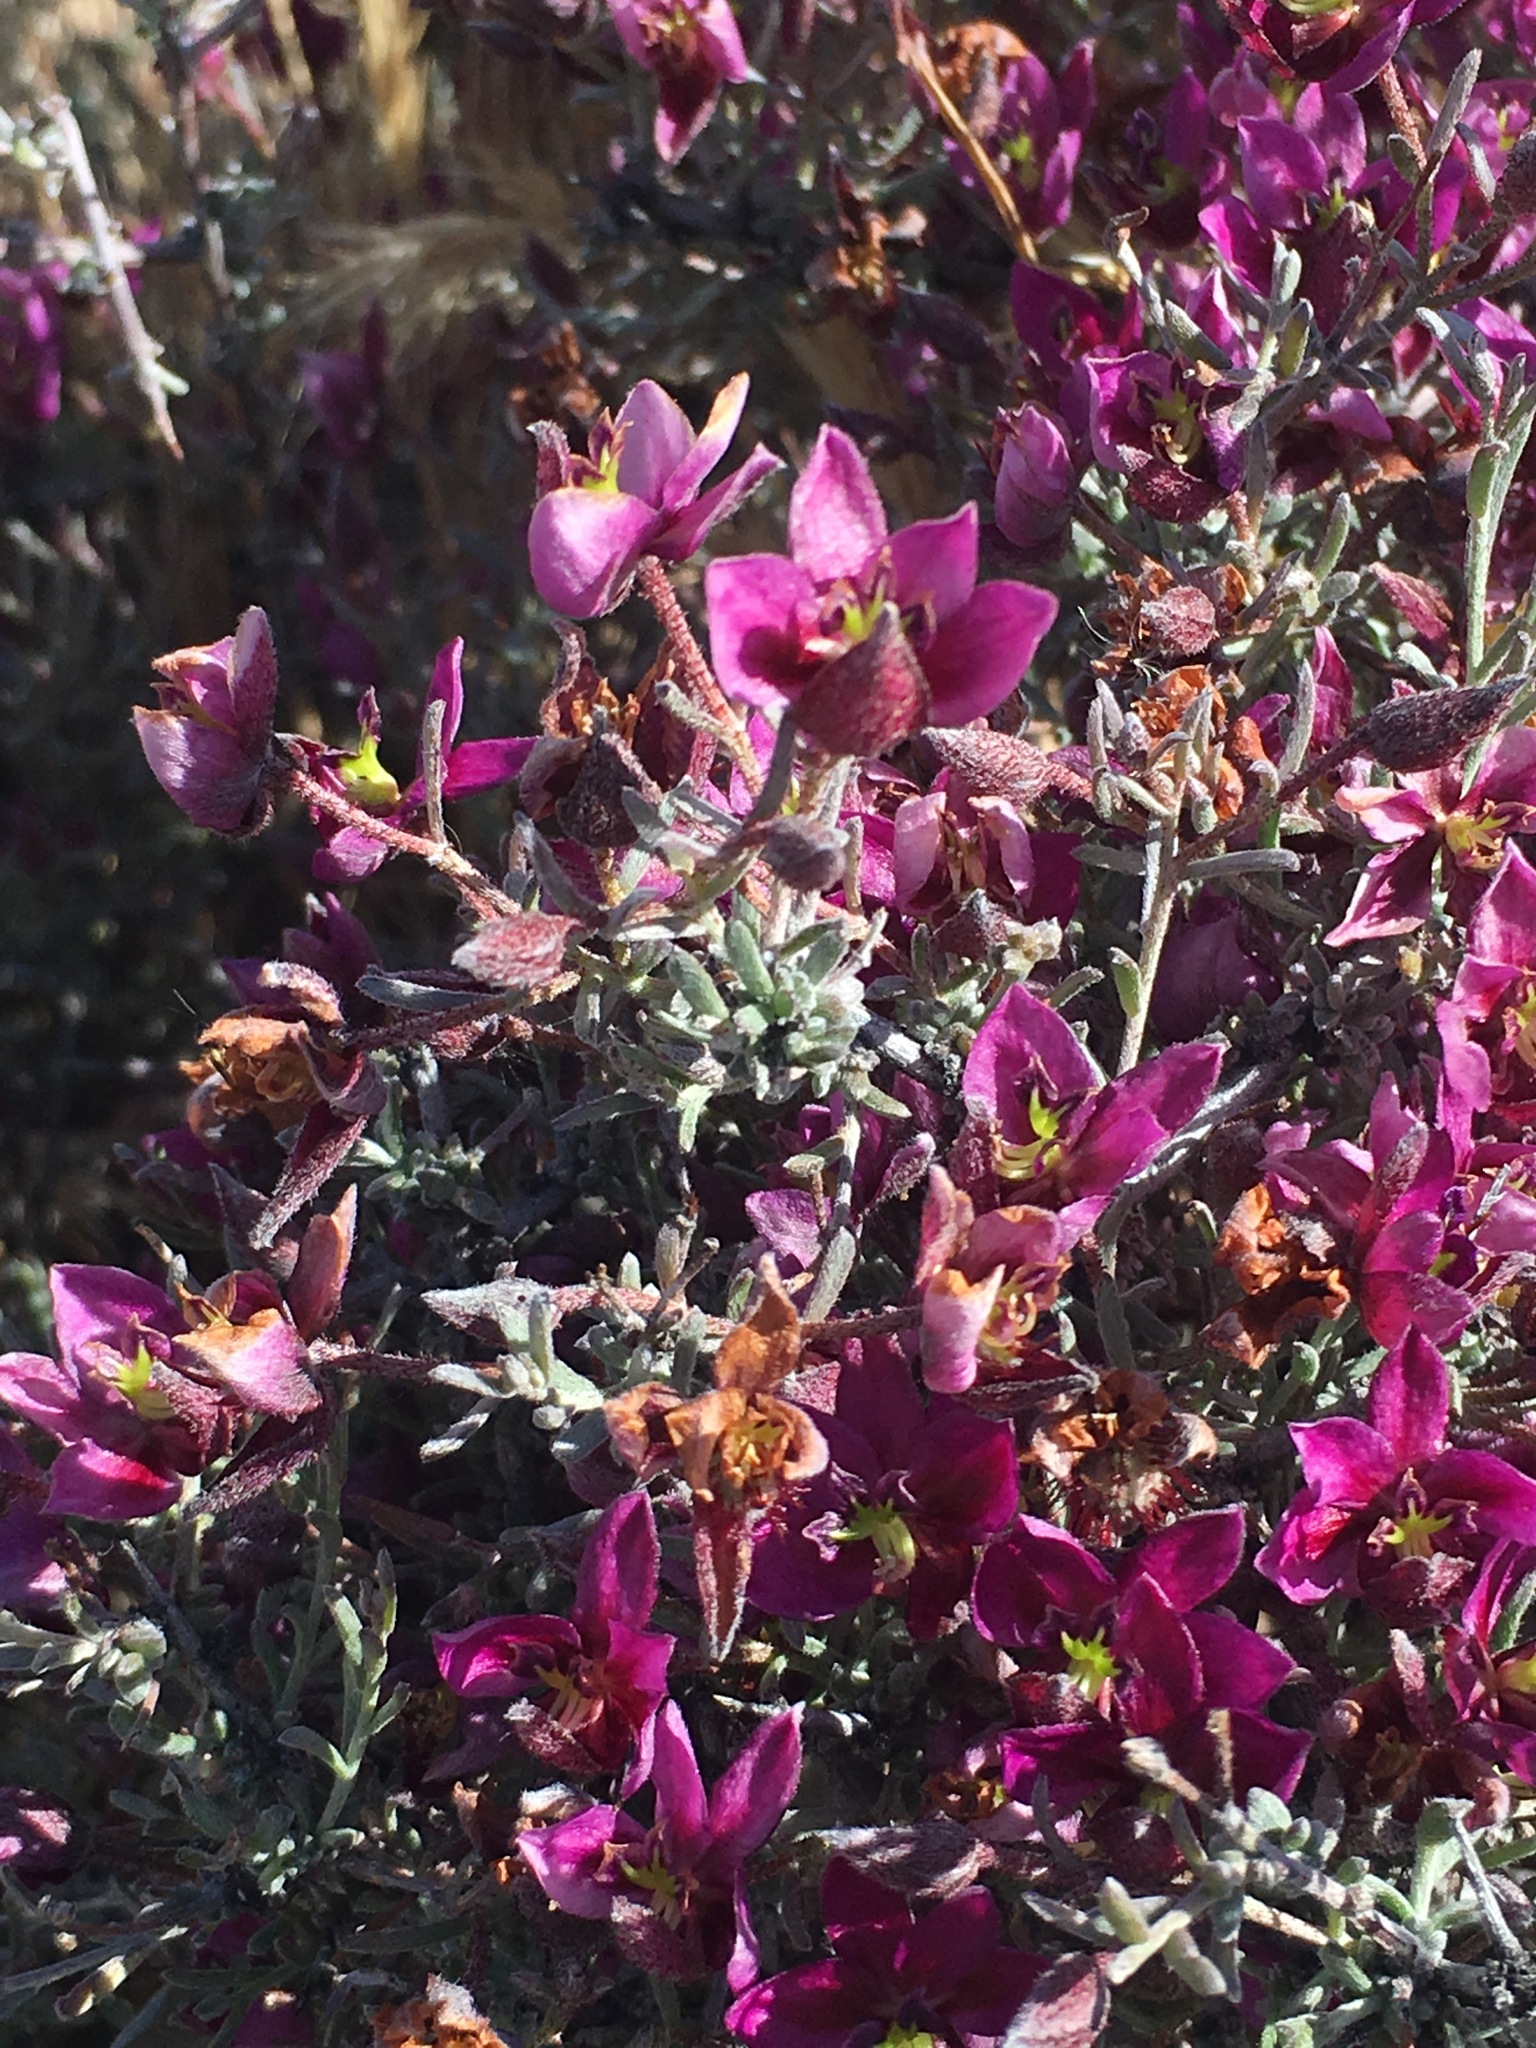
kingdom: Plantae
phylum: Tracheophyta
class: Magnoliopsida
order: Zygophyllales
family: Krameriaceae
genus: Krameria
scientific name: Krameria erecta
